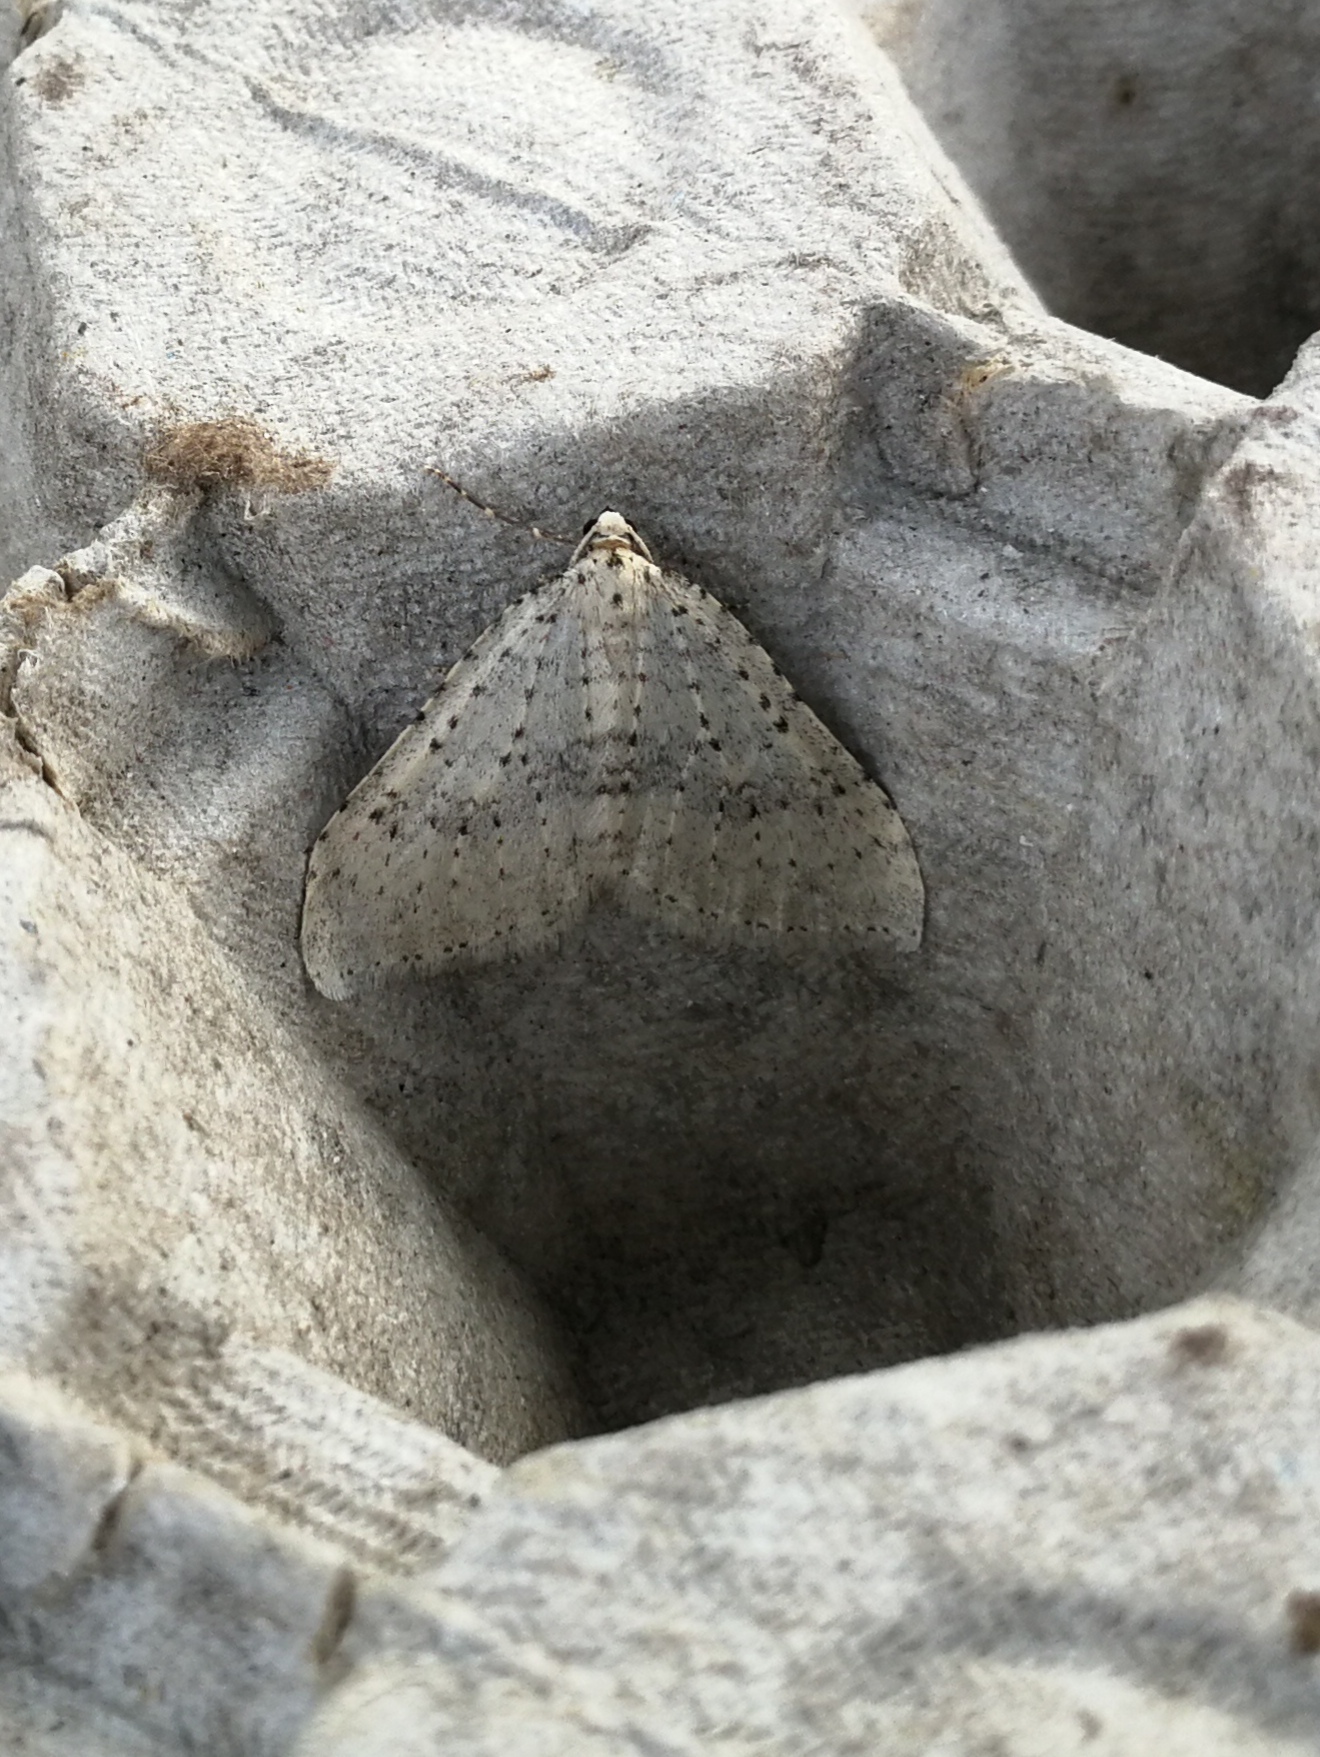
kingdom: Animalia
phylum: Arthropoda
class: Insecta
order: Lepidoptera
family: Geometridae
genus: Colostygia
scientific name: Colostygia multistrigaria
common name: Mottled grey
